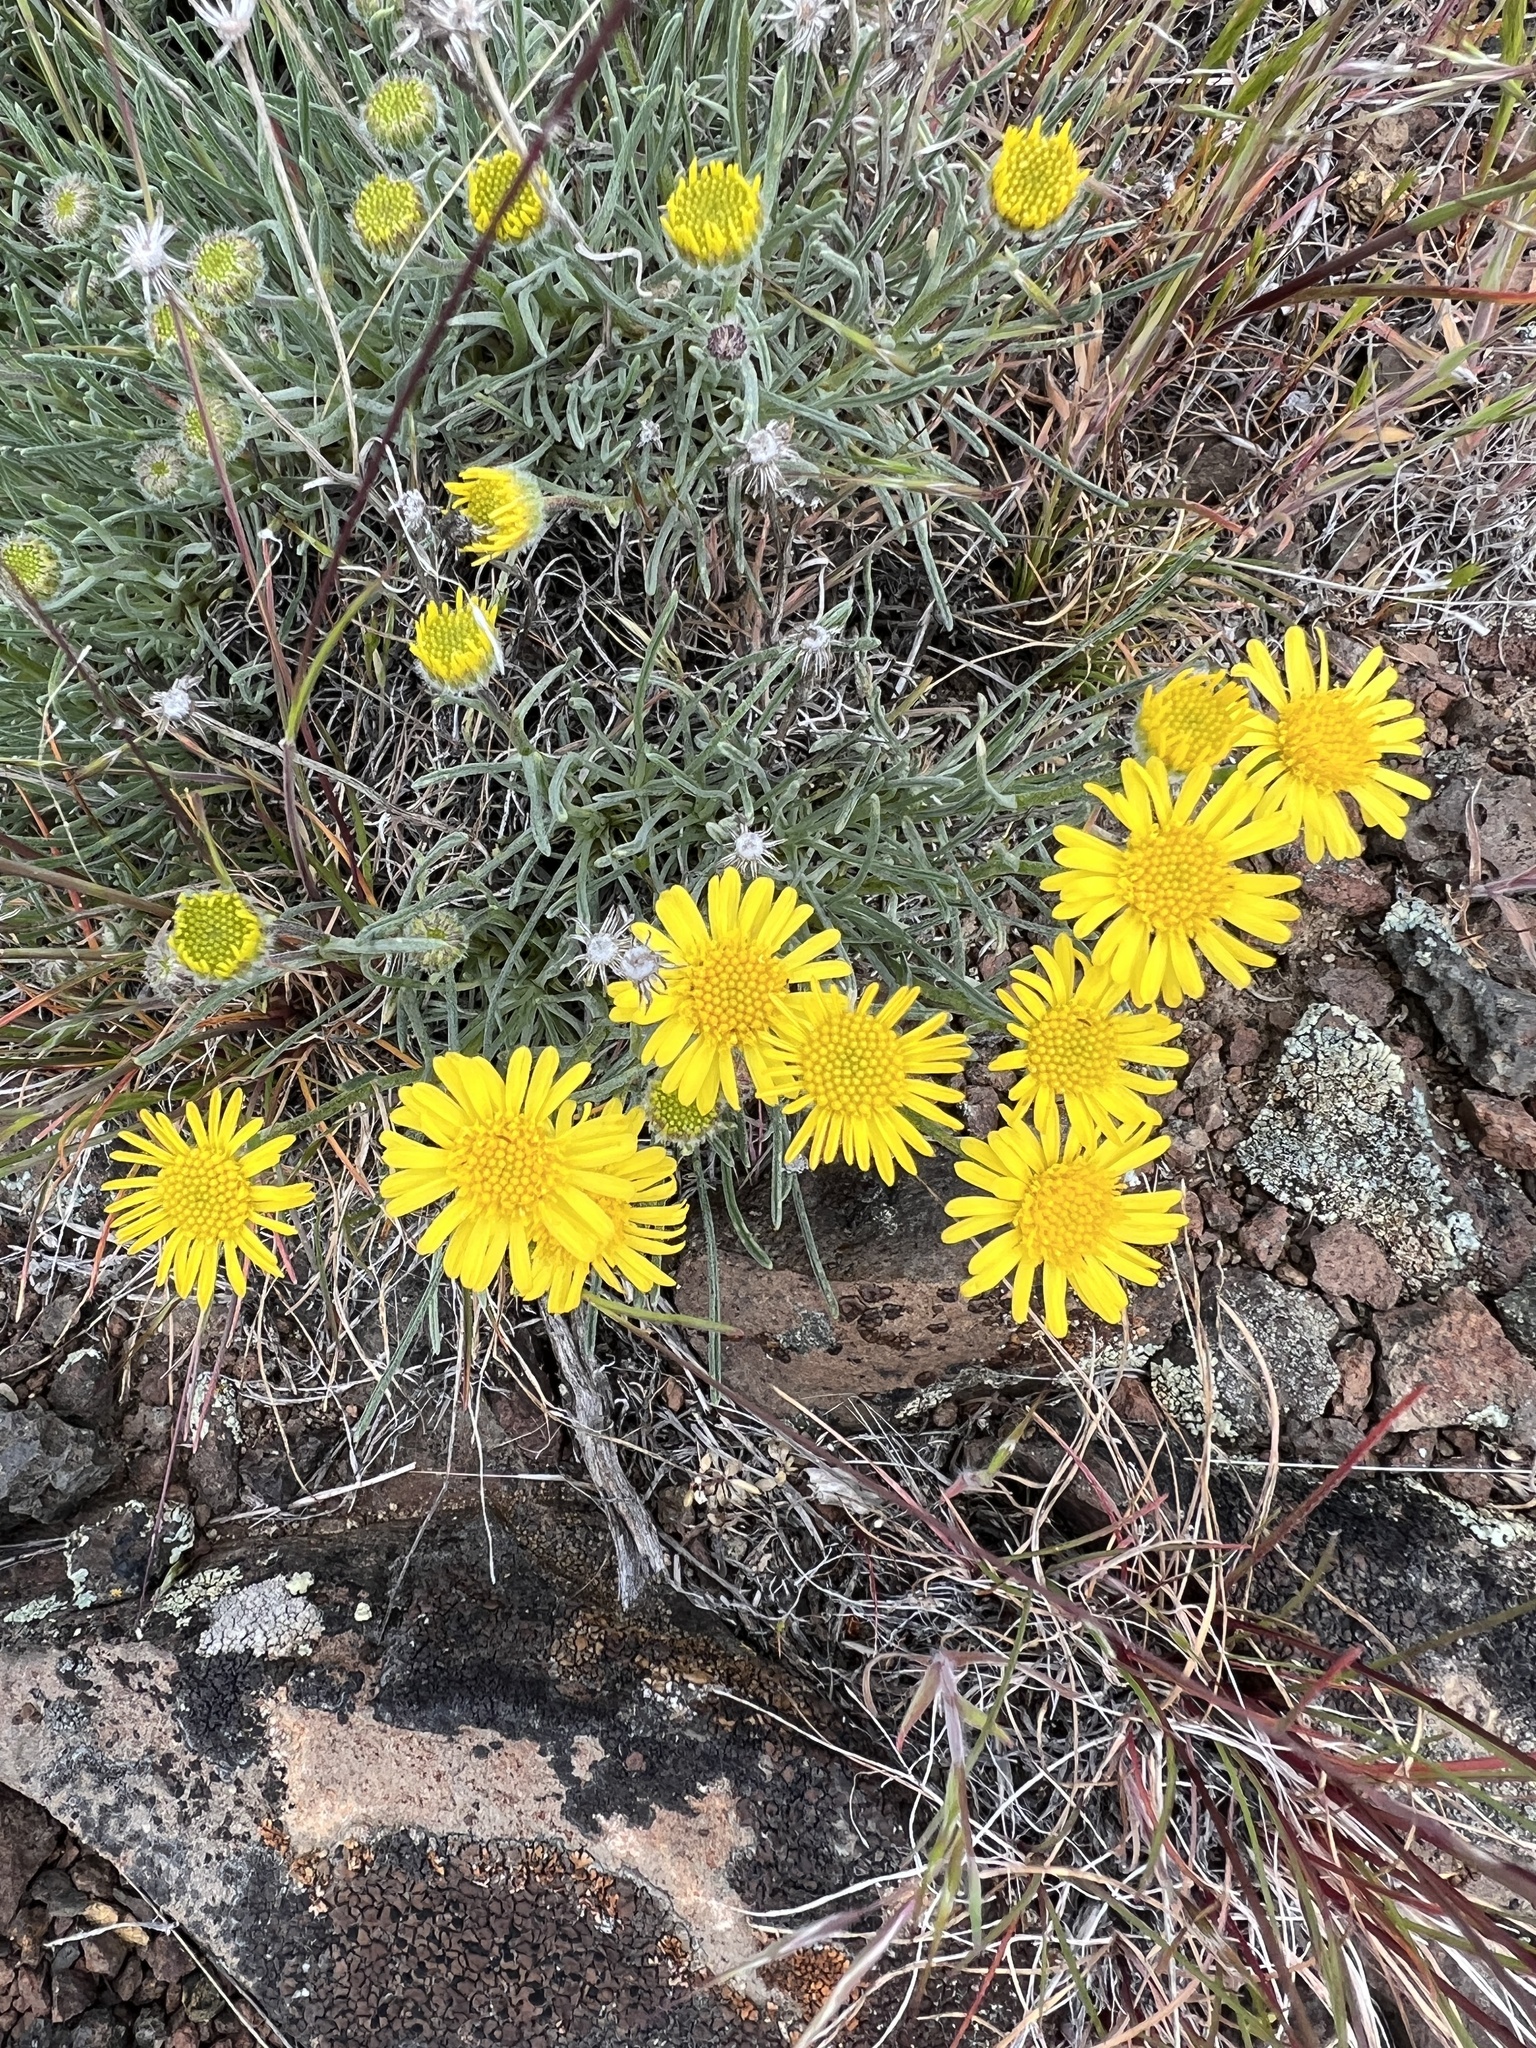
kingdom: Plantae
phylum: Tracheophyta
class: Magnoliopsida
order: Asterales
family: Asteraceae
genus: Erigeron
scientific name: Erigeron linearis
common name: Desert yellow fleabane
